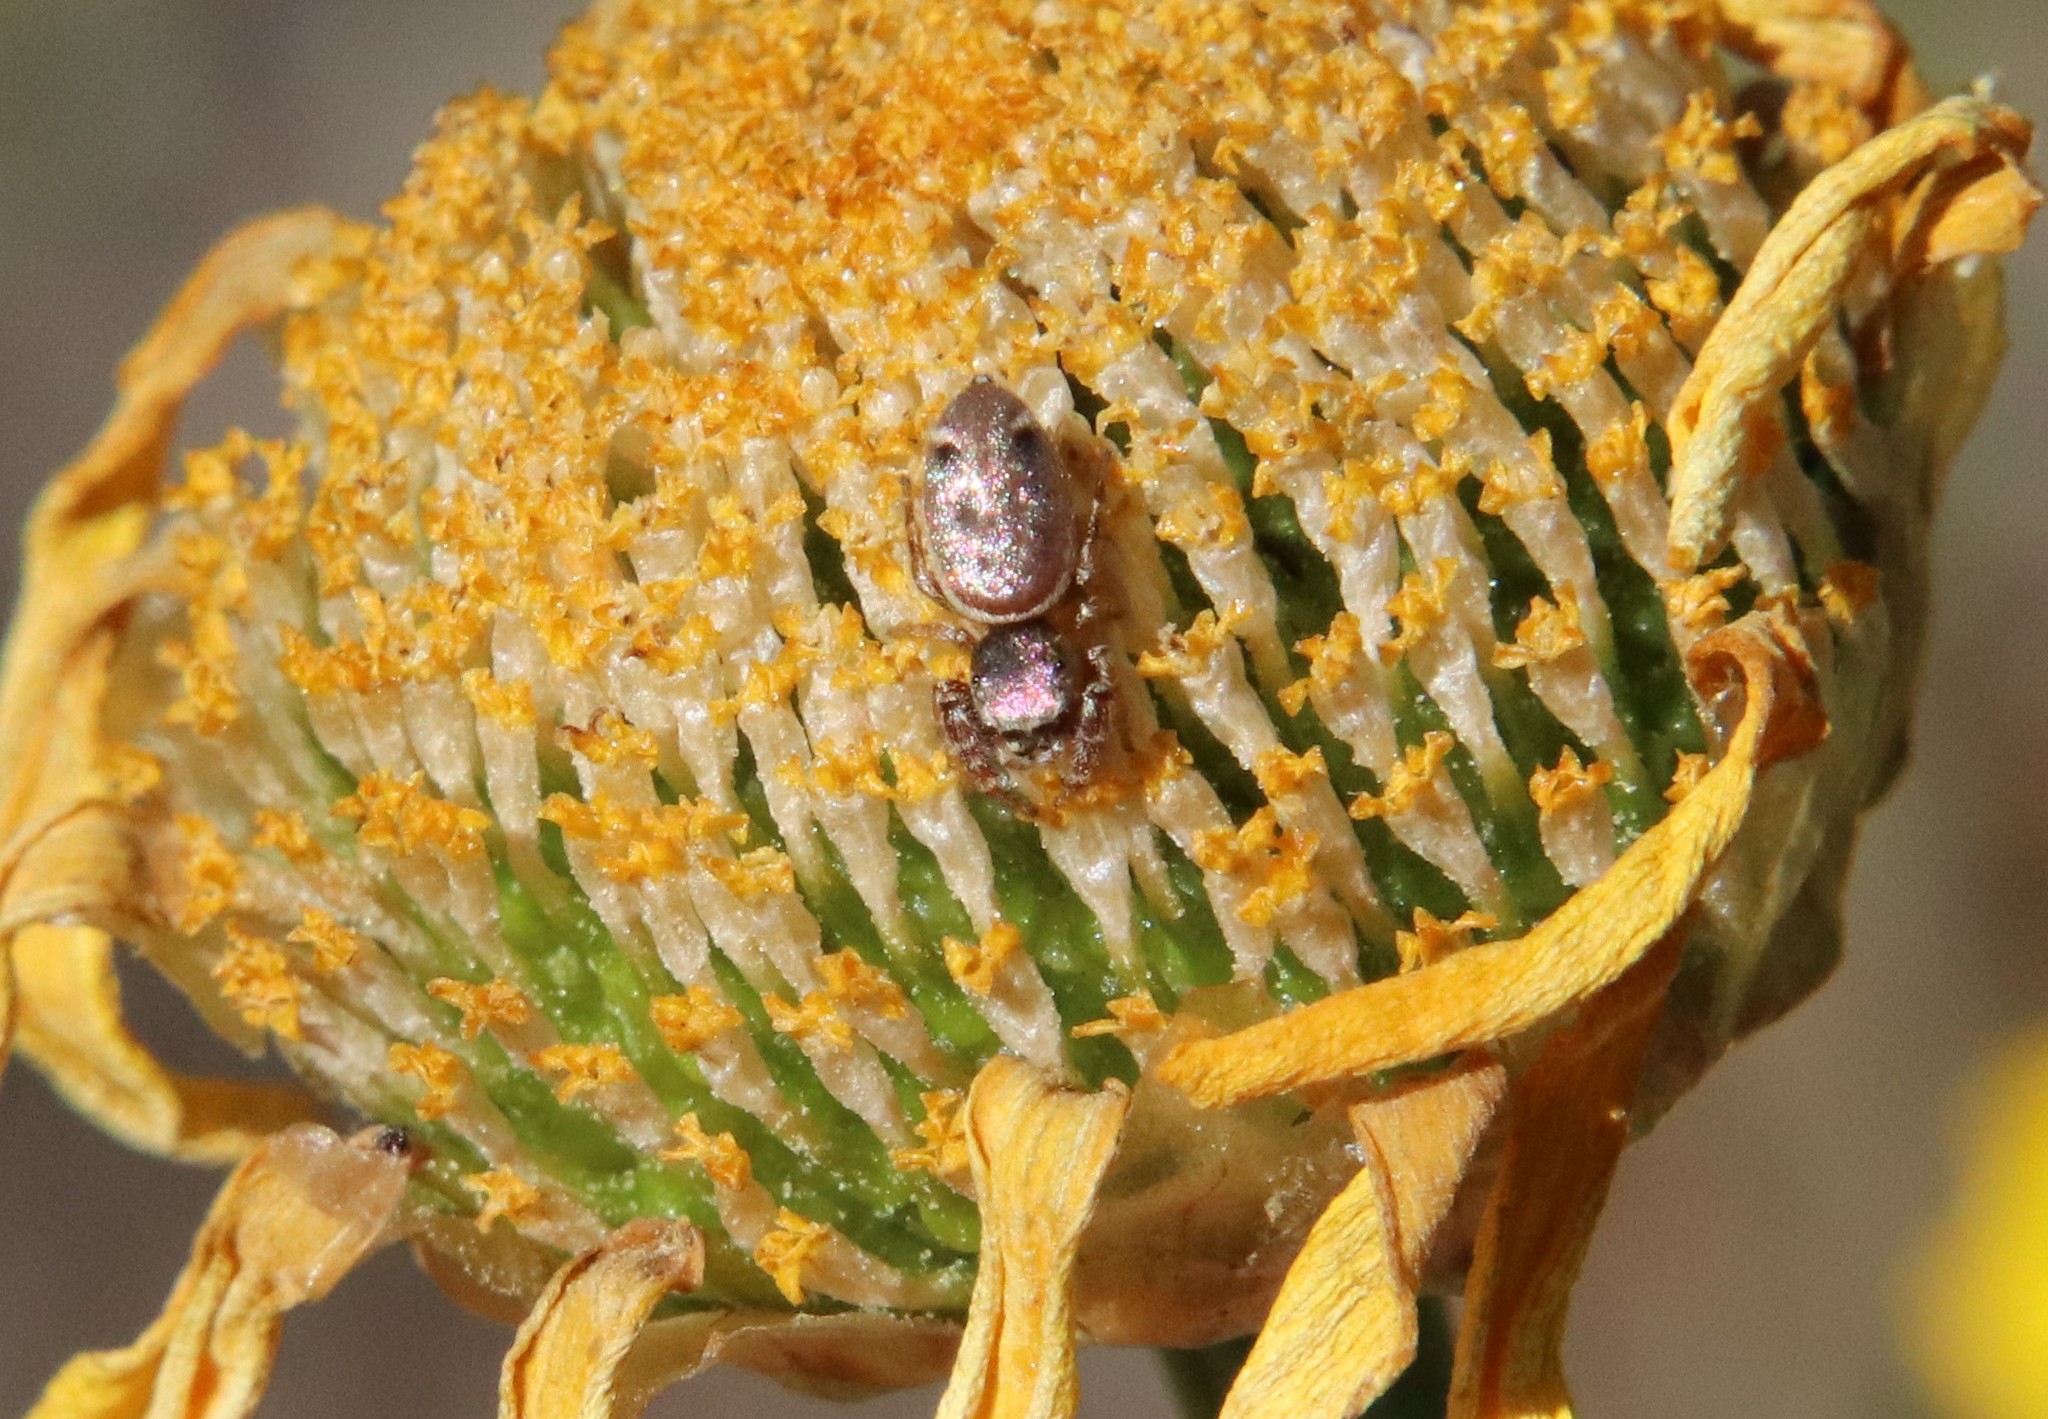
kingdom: Animalia
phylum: Arthropoda
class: Arachnida
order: Araneae
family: Salticidae
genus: Sassacus
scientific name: Sassacus vitis
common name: Jumping spiders
